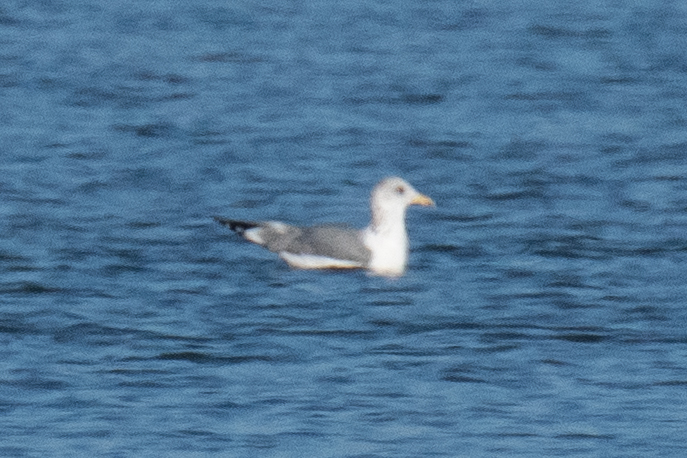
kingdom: Animalia
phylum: Chordata
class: Aves
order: Charadriiformes
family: Laridae
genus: Larus
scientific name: Larus californicus
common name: California gull
